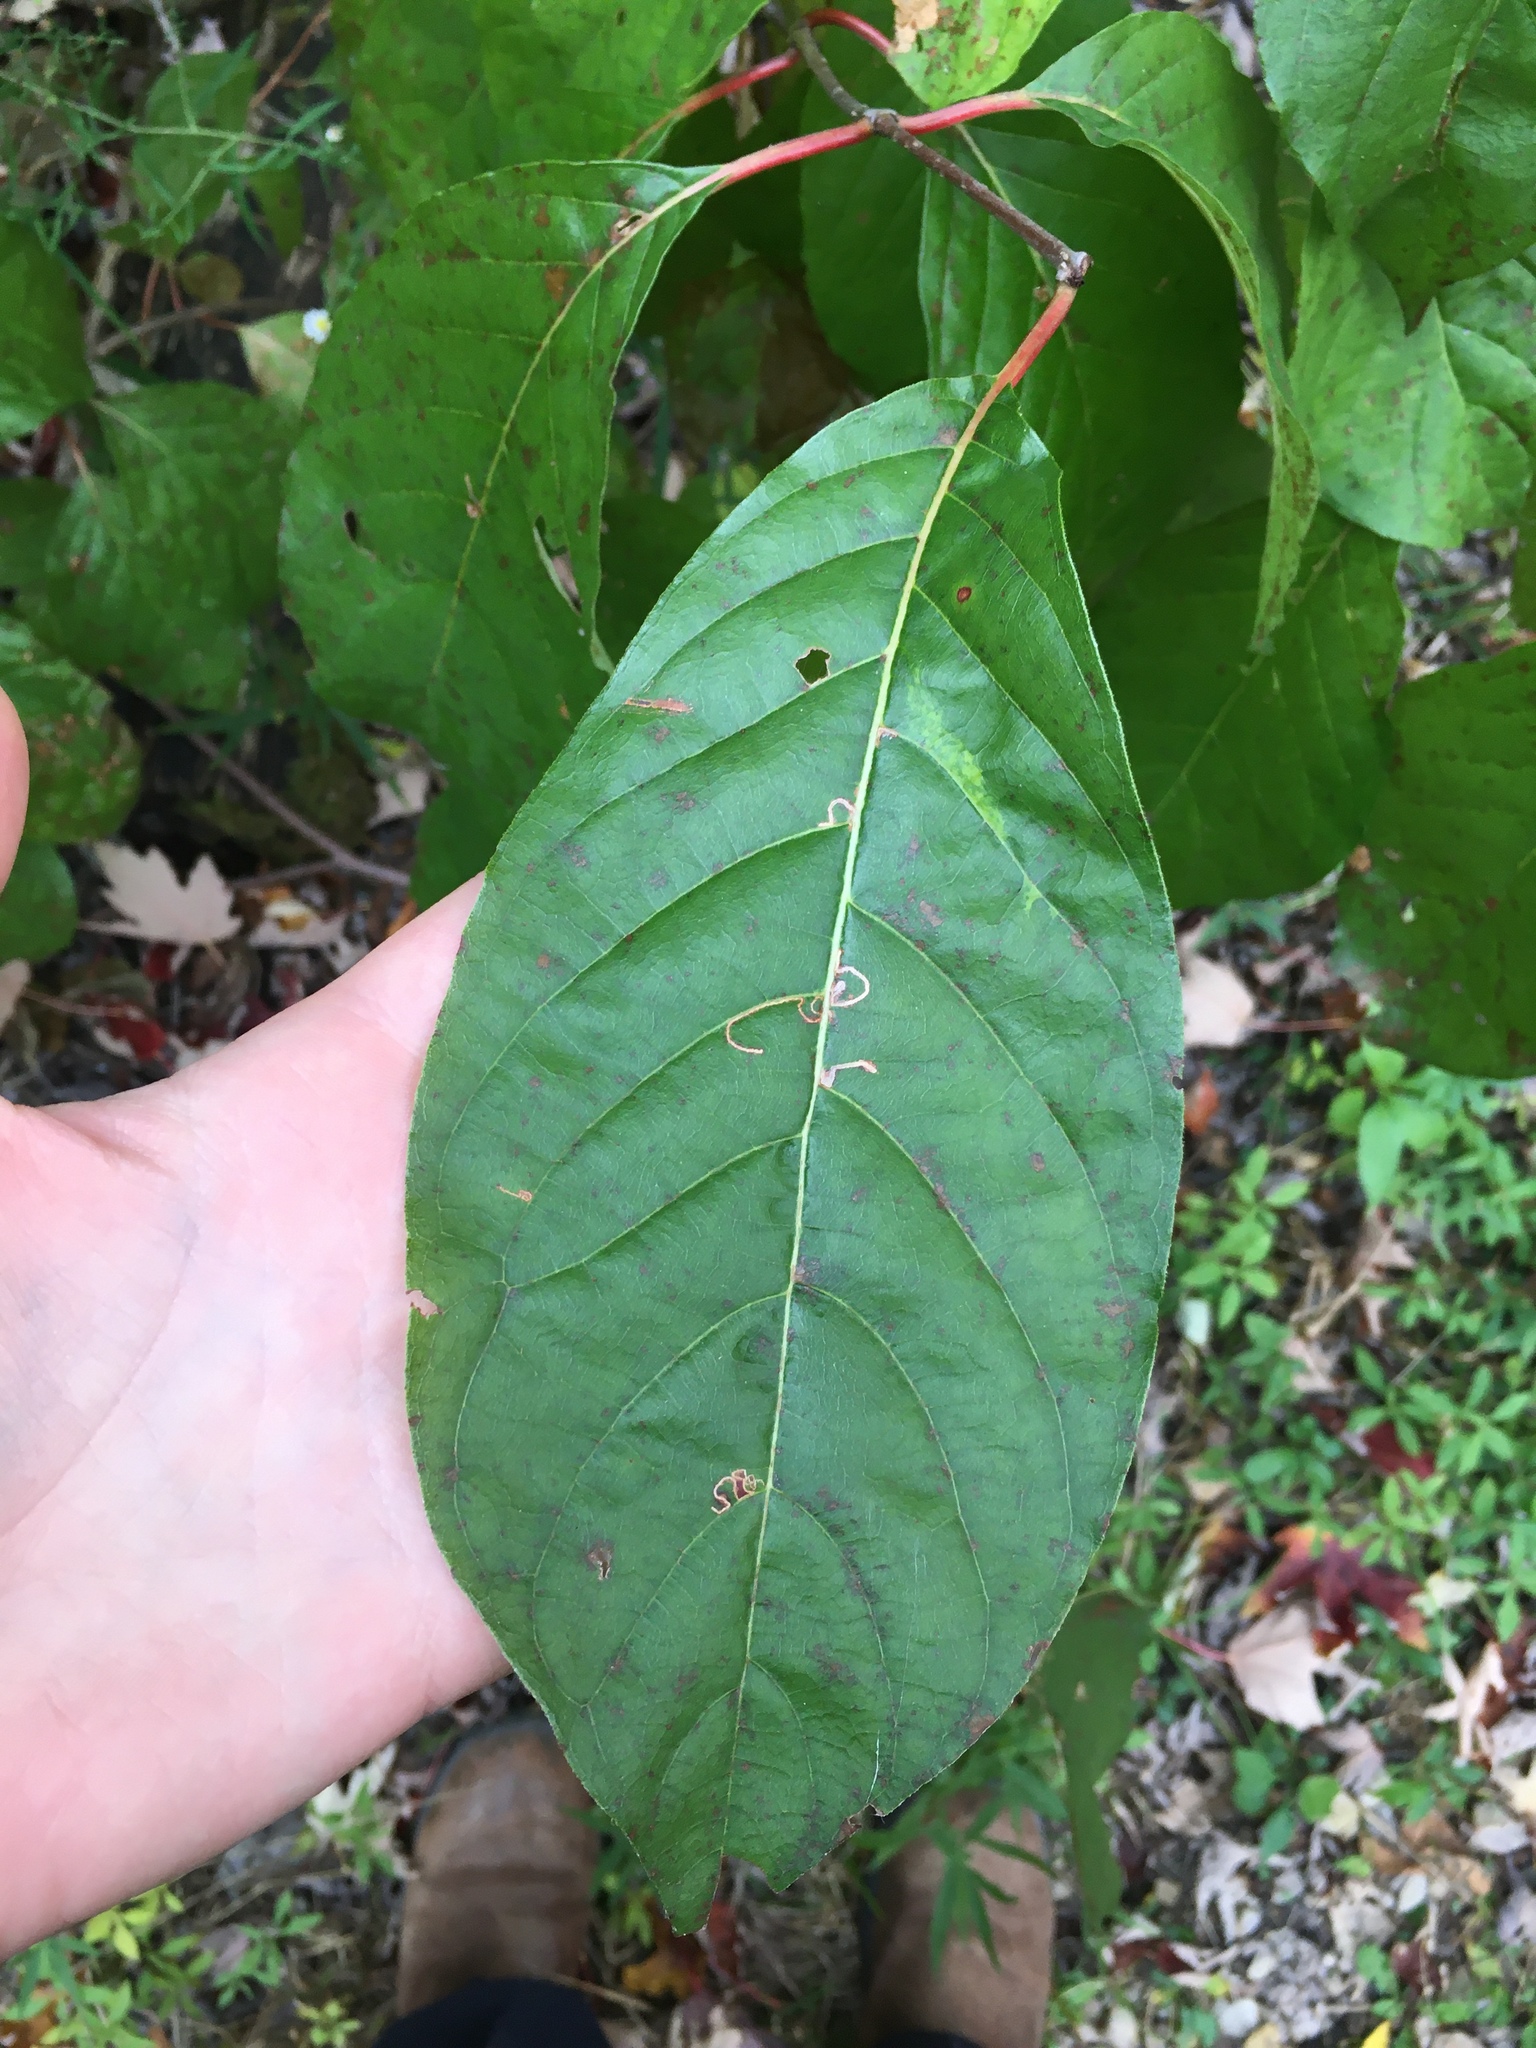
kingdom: Plantae
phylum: Tracheophyta
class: Magnoliopsida
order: Gentianales
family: Rubiaceae
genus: Cephalanthus
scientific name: Cephalanthus occidentalis
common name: Button-willow
